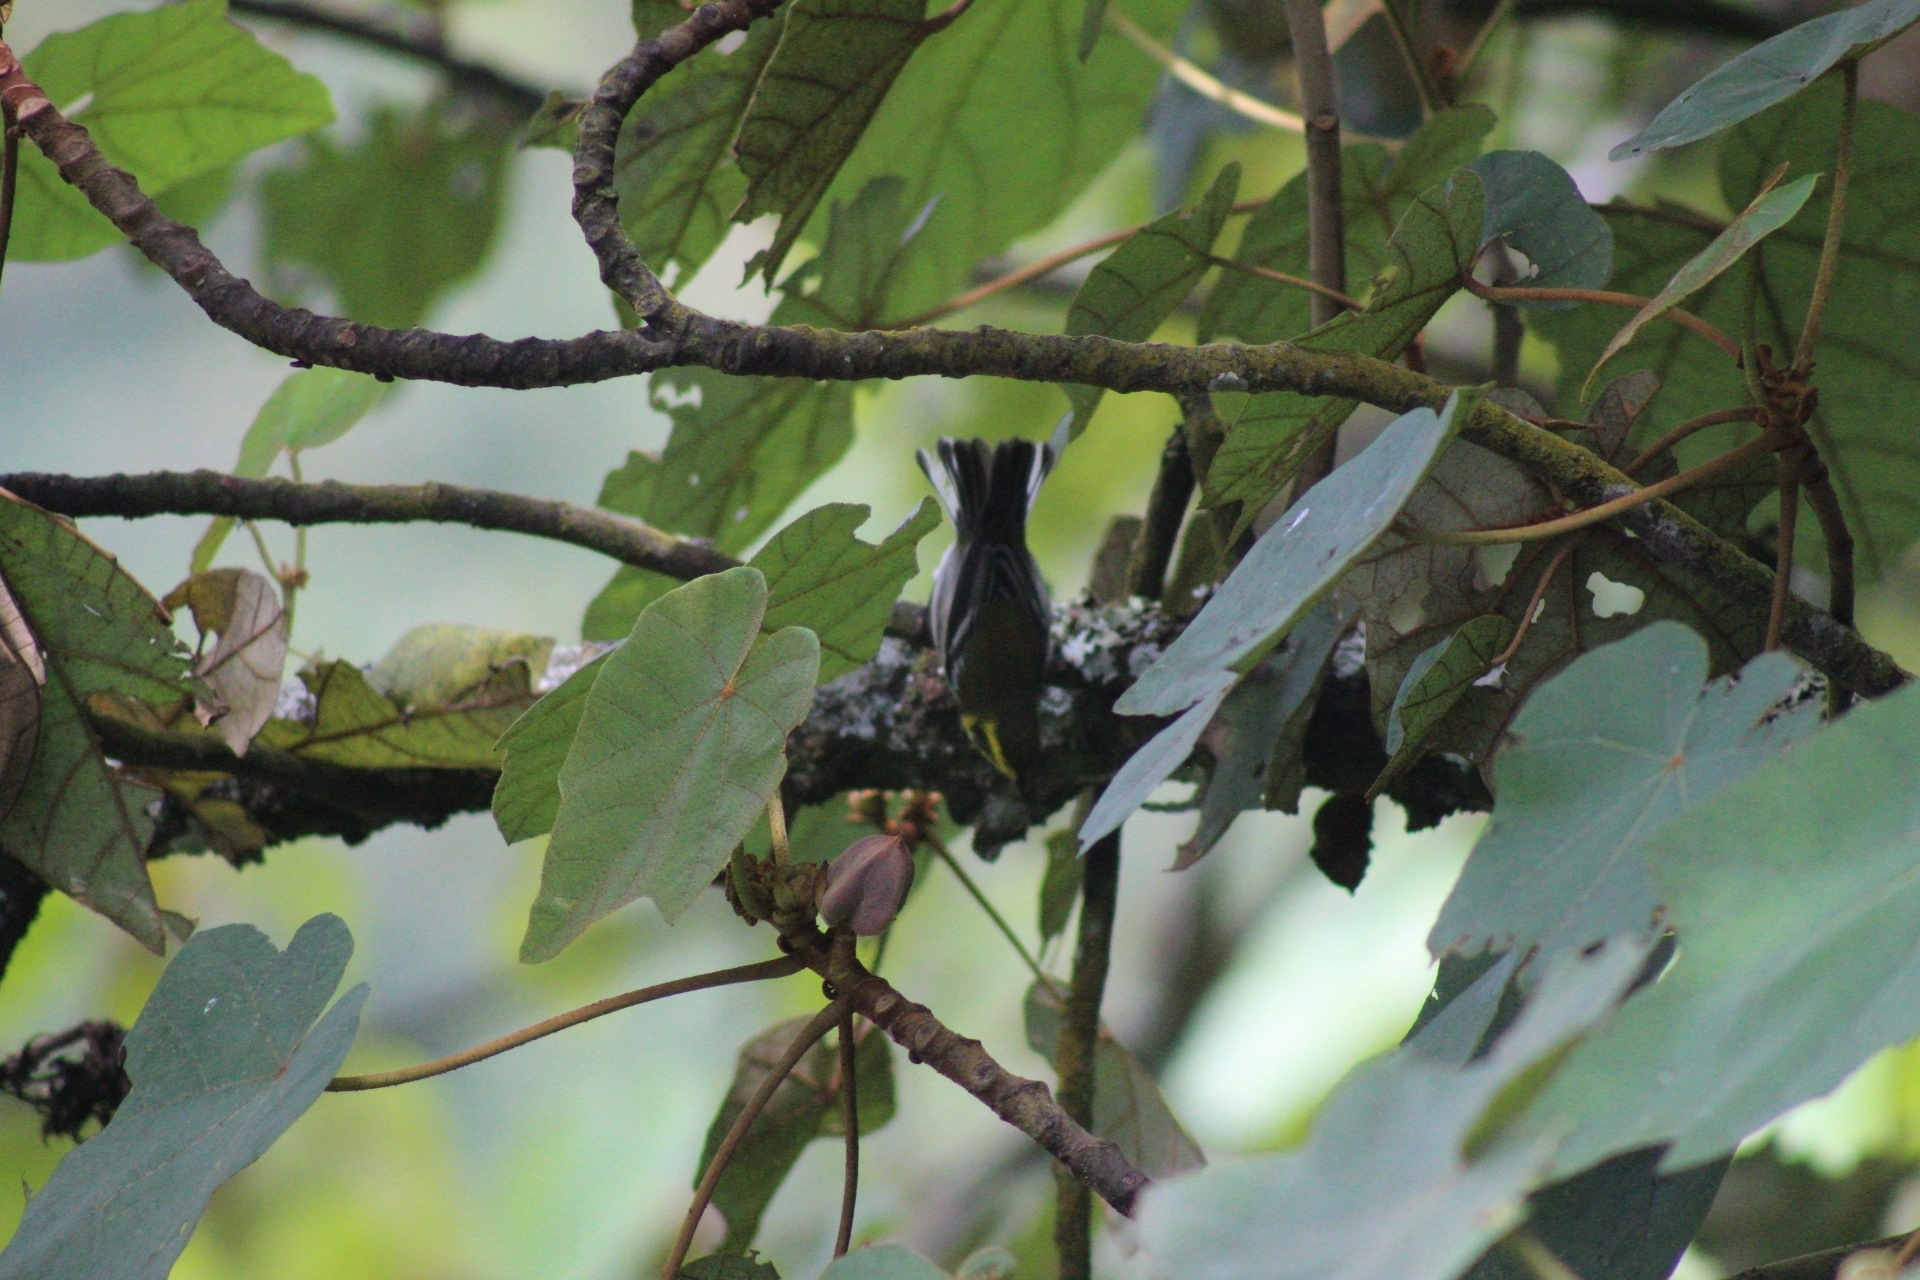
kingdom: Animalia
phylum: Chordata
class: Aves
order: Passeriformes
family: Parulidae
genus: Setophaga
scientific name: Setophaga townsendi
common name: Townsend's warbler
